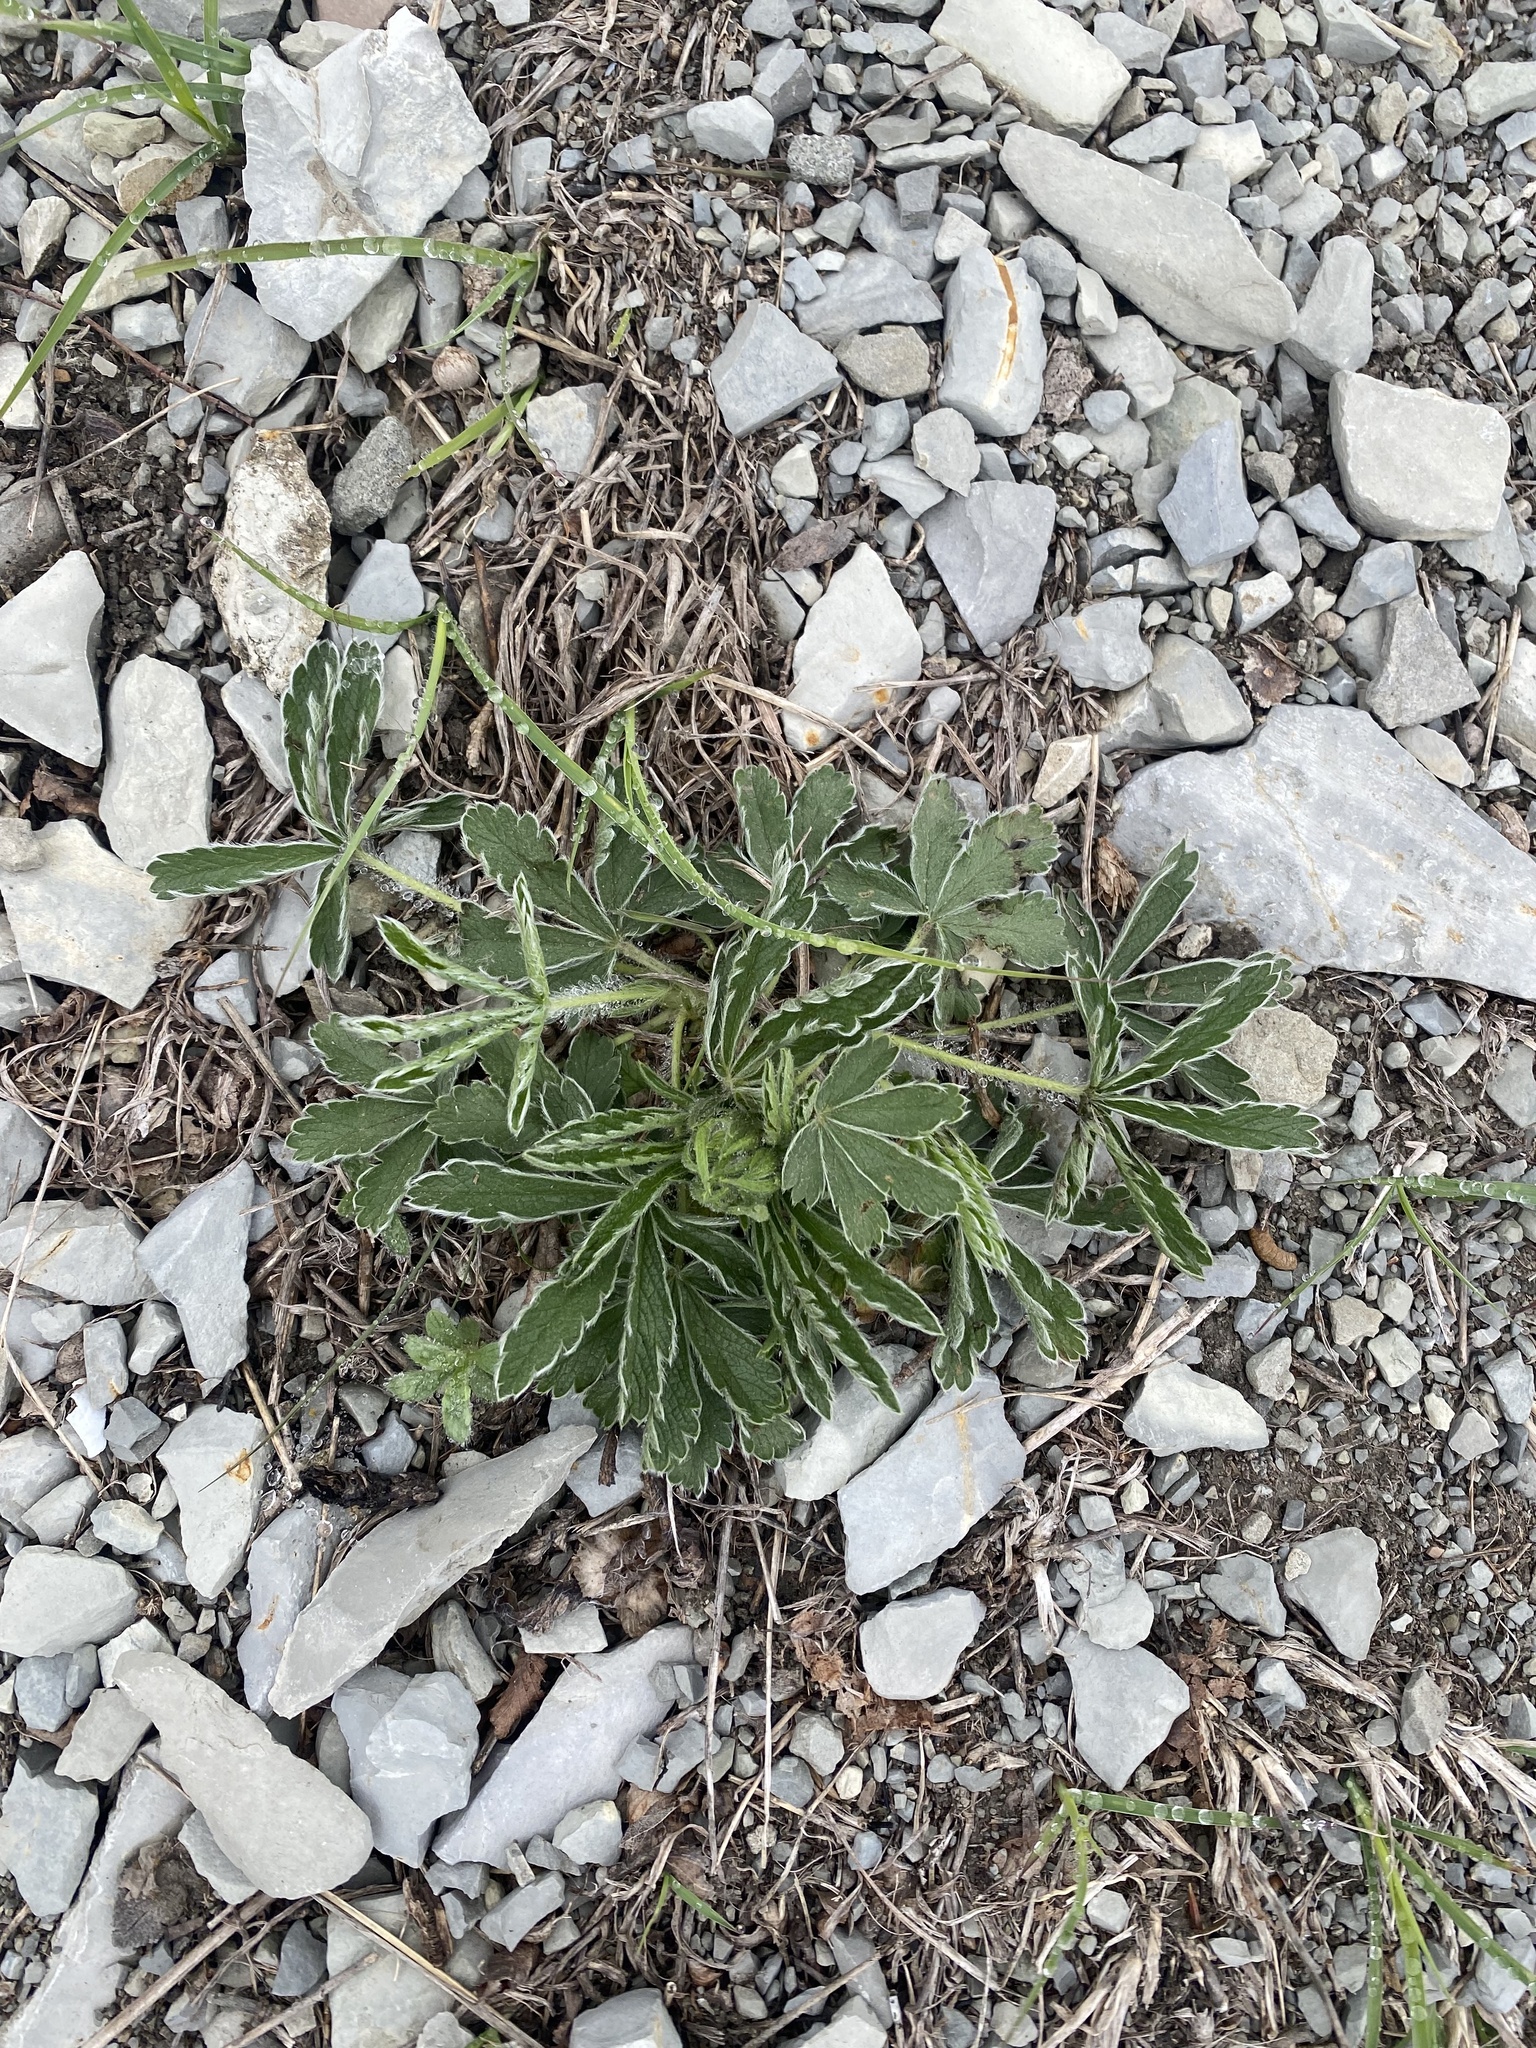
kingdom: Plantae
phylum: Tracheophyta
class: Magnoliopsida
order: Rosales
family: Rosaceae
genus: Potentilla
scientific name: Potentilla sphenophylla
